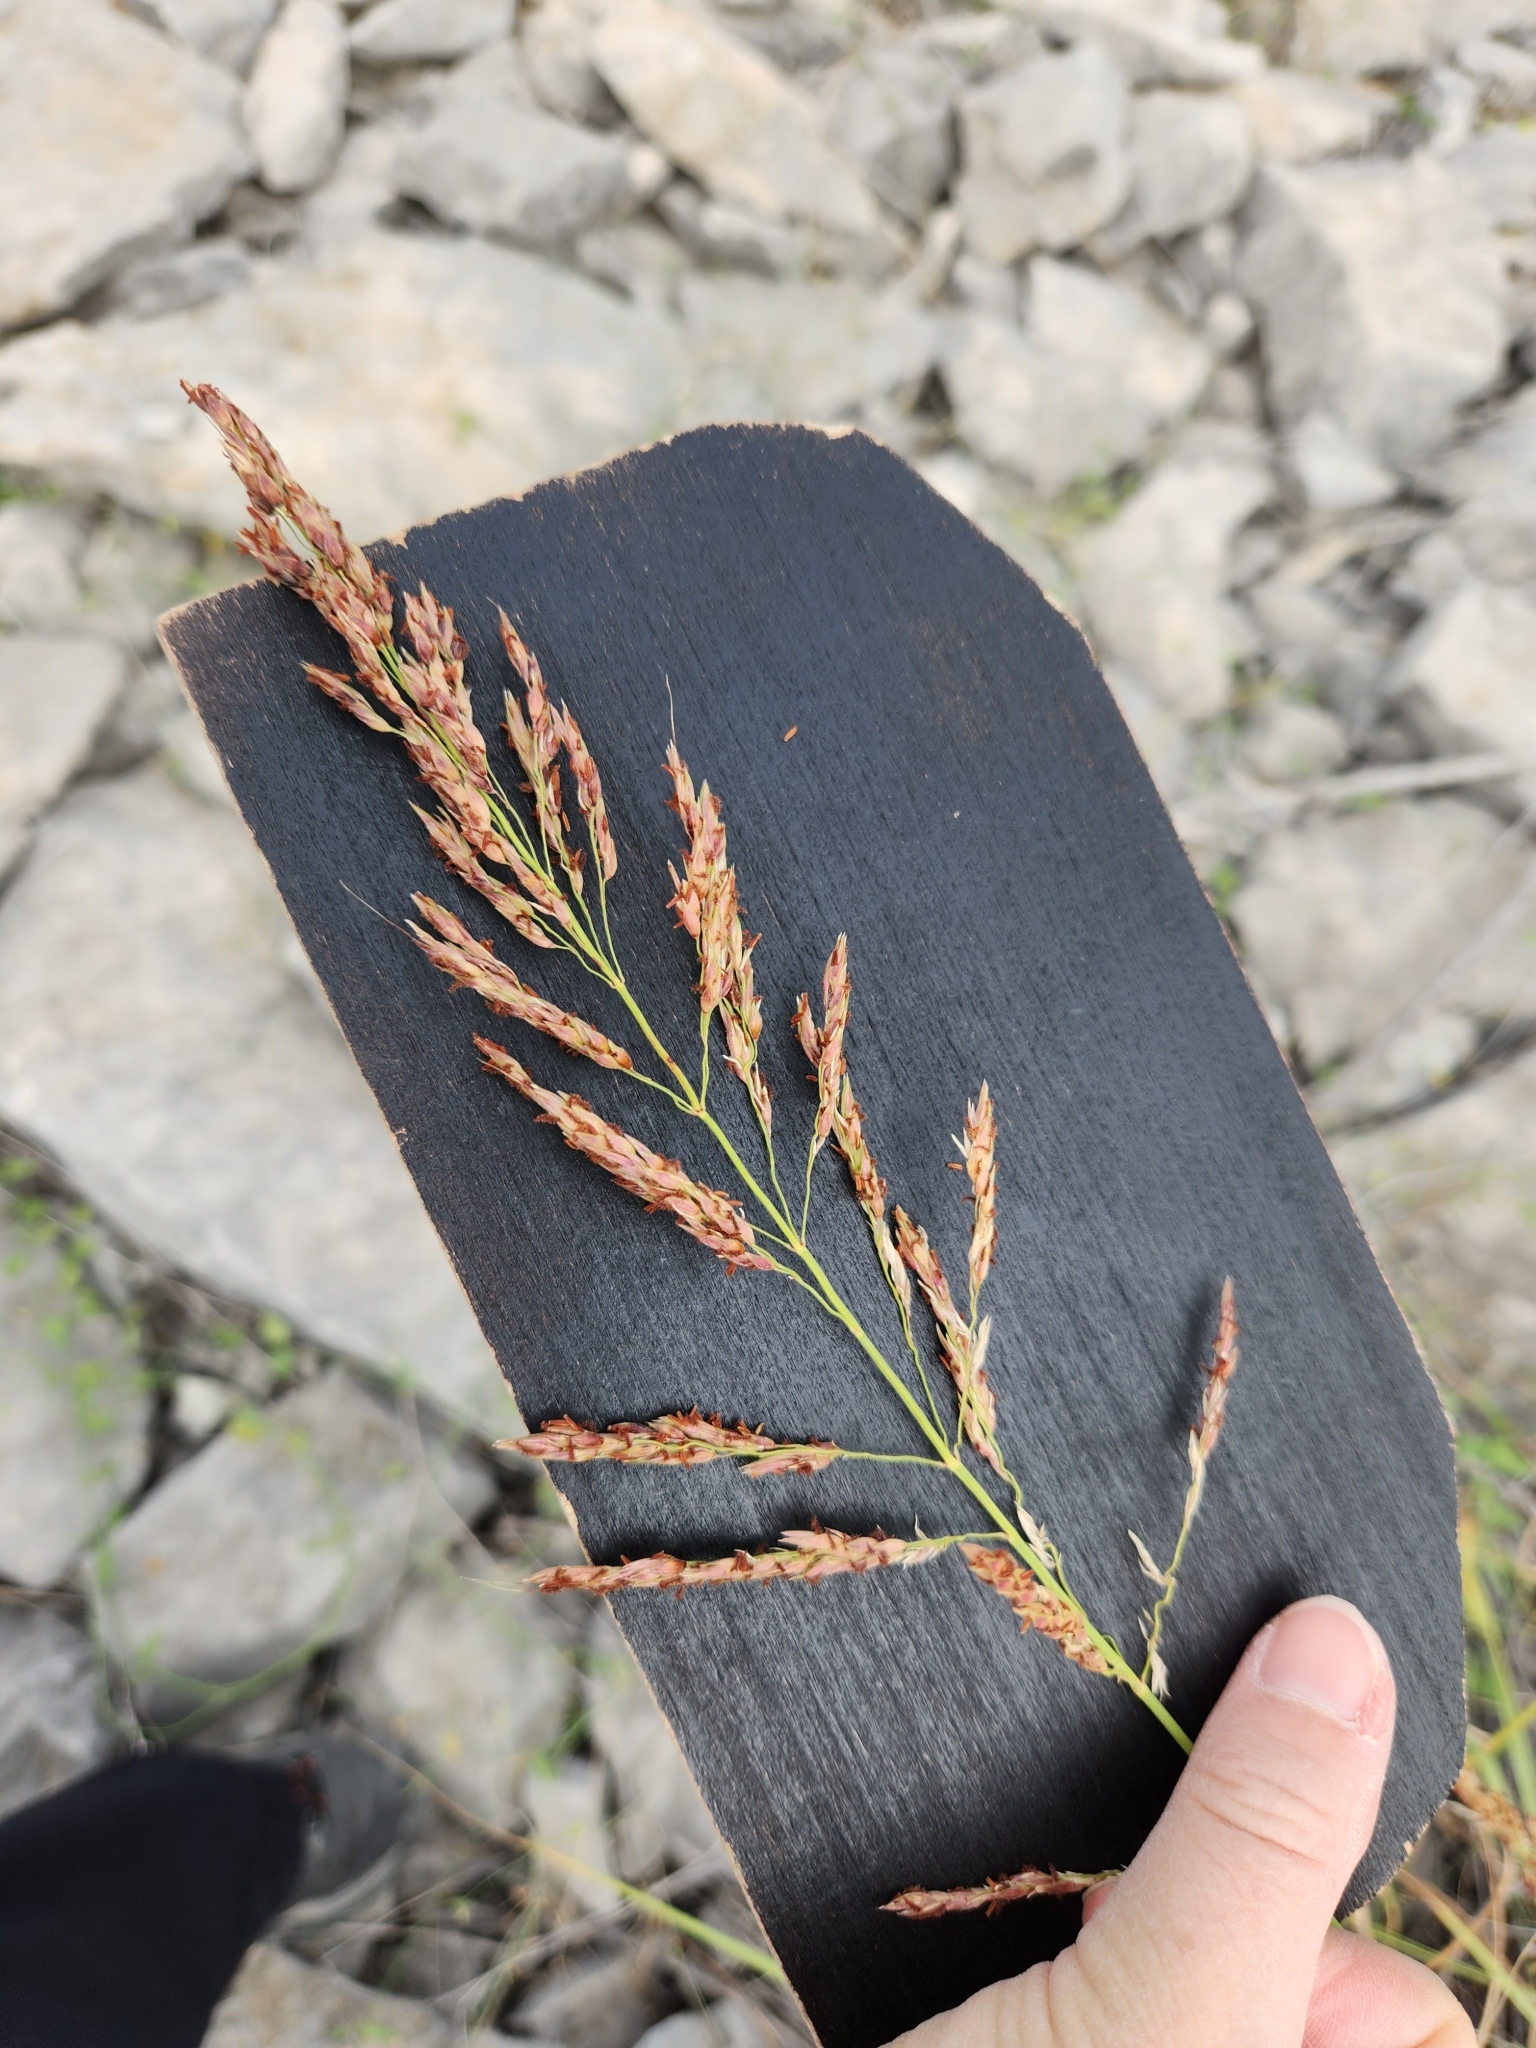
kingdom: Plantae
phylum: Tracheophyta
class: Liliopsida
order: Poales
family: Poaceae
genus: Sorghum
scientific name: Sorghum halepense
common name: Johnson-grass
